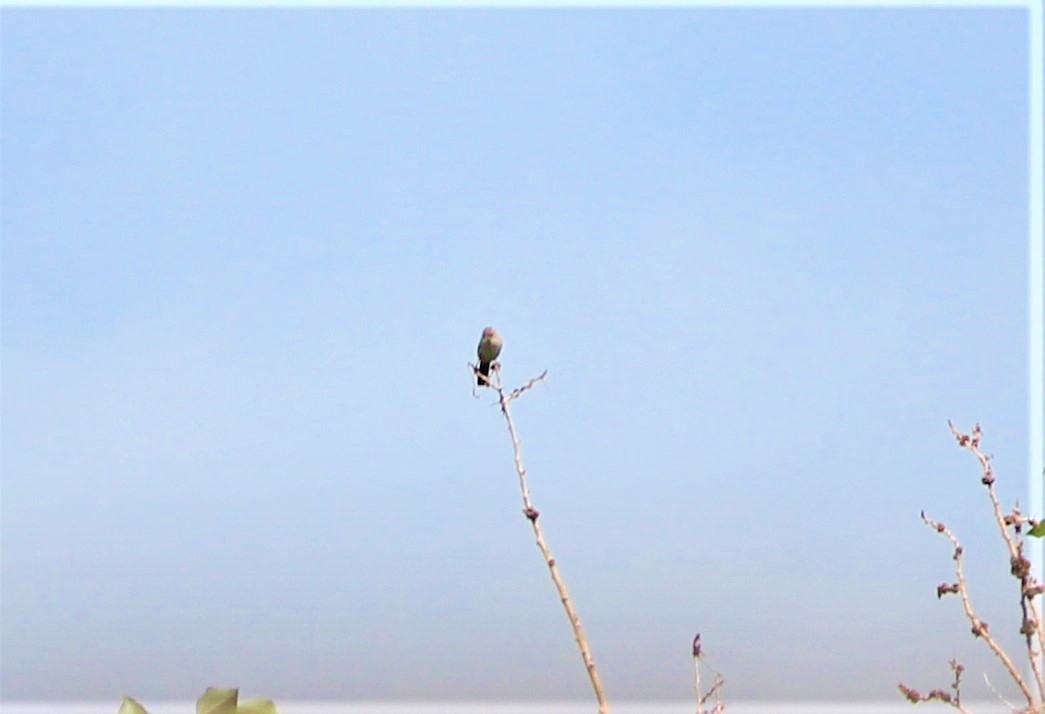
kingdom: Animalia
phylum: Chordata
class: Aves
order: Passeriformes
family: Aegithalidae
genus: Psaltriparus
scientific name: Psaltriparus minimus
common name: American bushtit
